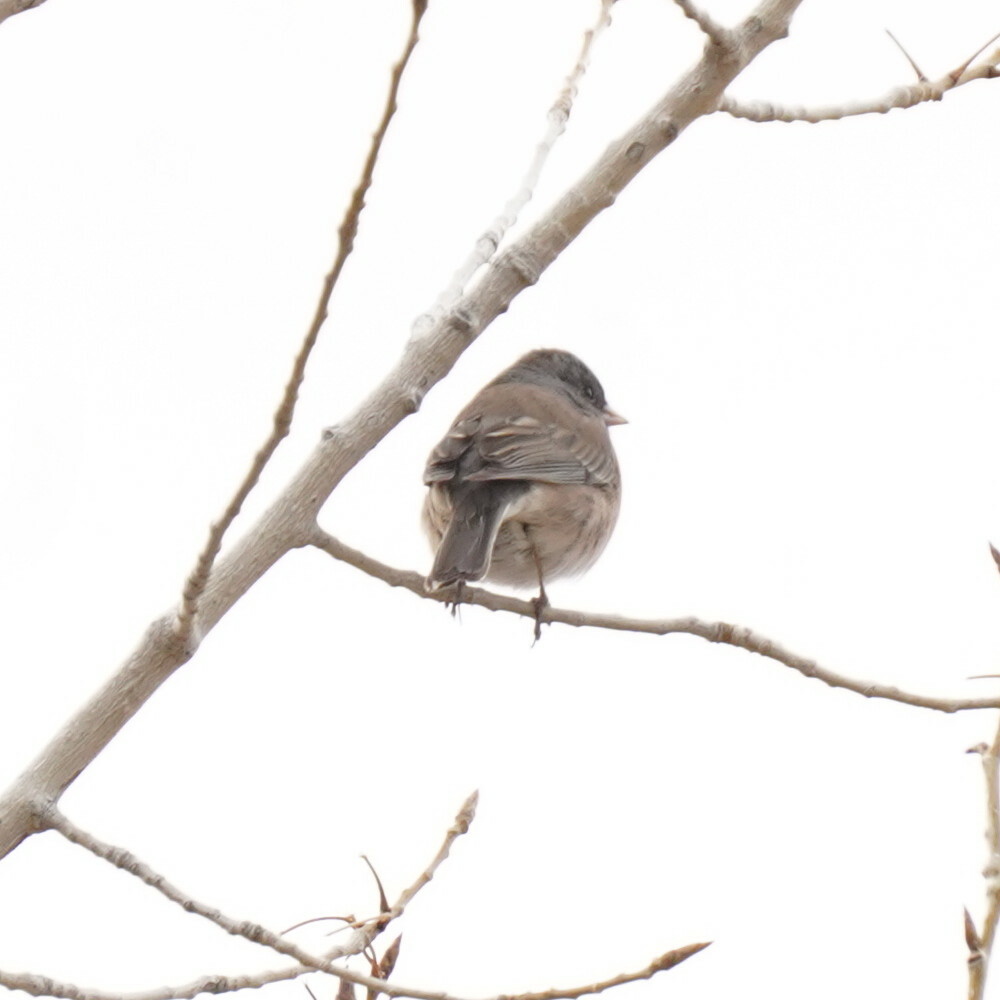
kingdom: Animalia
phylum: Chordata
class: Aves
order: Passeriformes
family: Passerellidae
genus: Junco
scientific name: Junco hyemalis
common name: Dark-eyed junco
